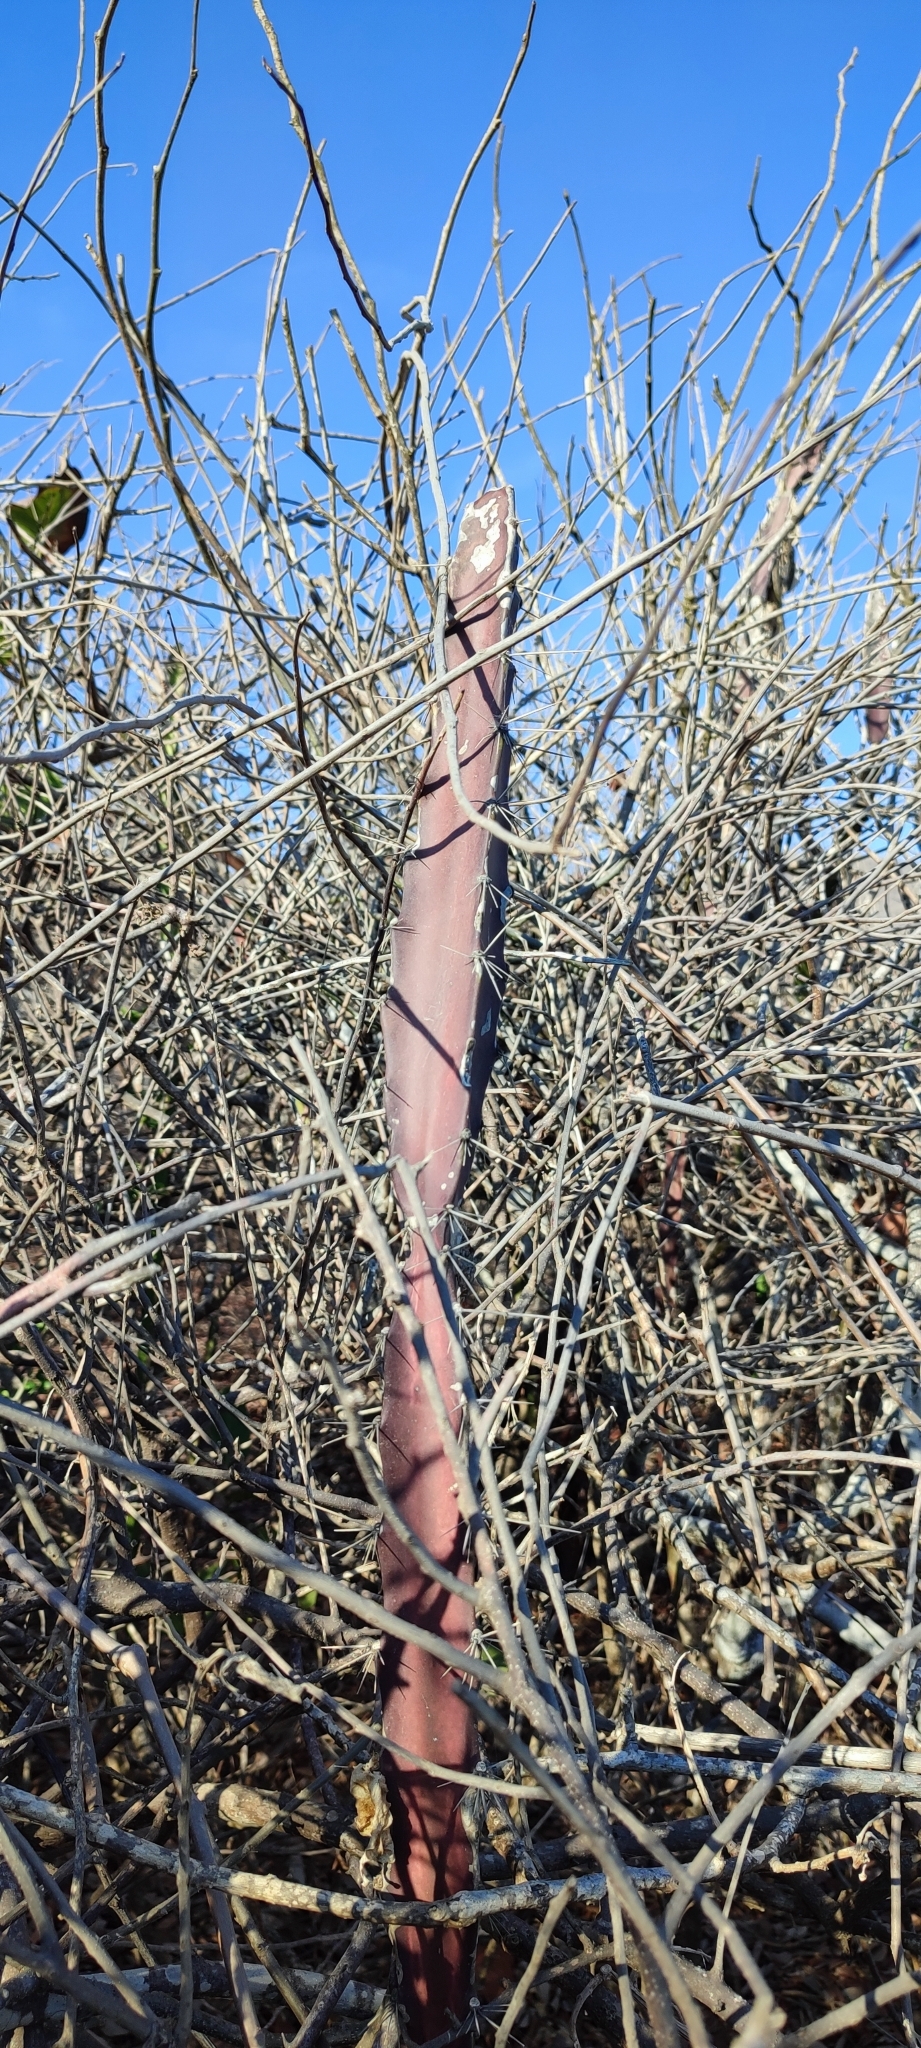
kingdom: Plantae
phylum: Tracheophyta
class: Magnoliopsida
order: Caryophyllales
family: Cactaceae
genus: Acanthocereus
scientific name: Acanthocereus tetragonus
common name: Triangle cactus
